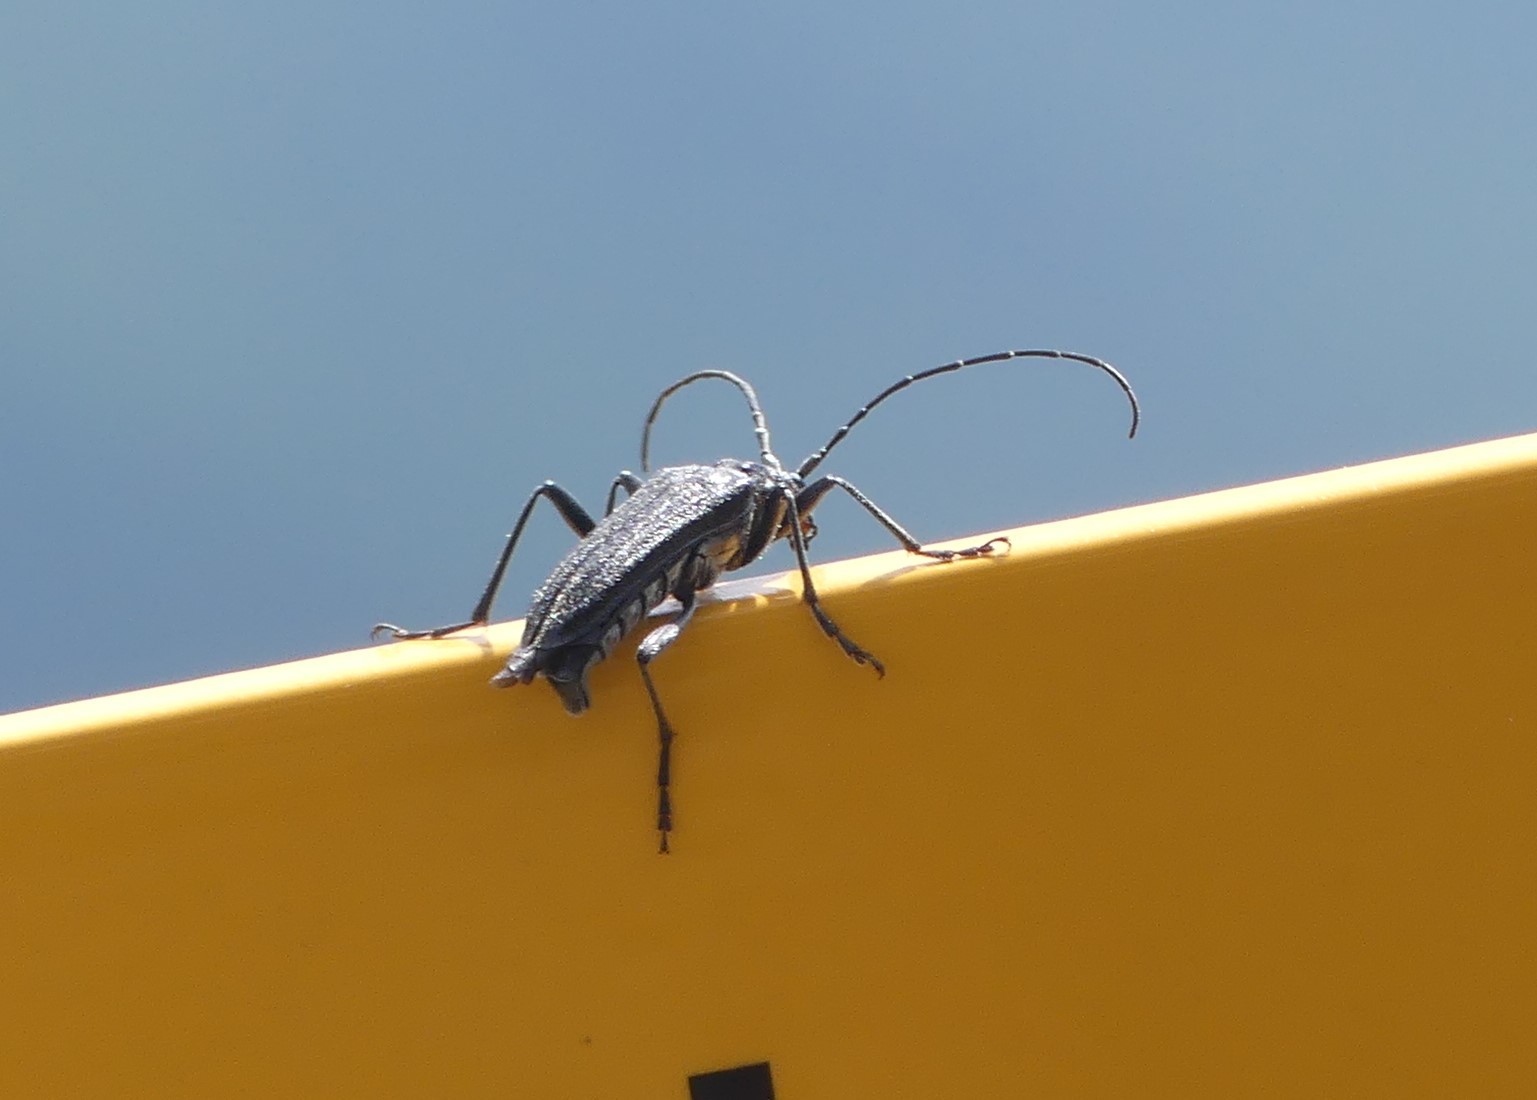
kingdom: Animalia
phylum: Arthropoda
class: Insecta
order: Coleoptera
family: Cerambycidae
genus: Oxymirus
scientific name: Oxymirus cursor
